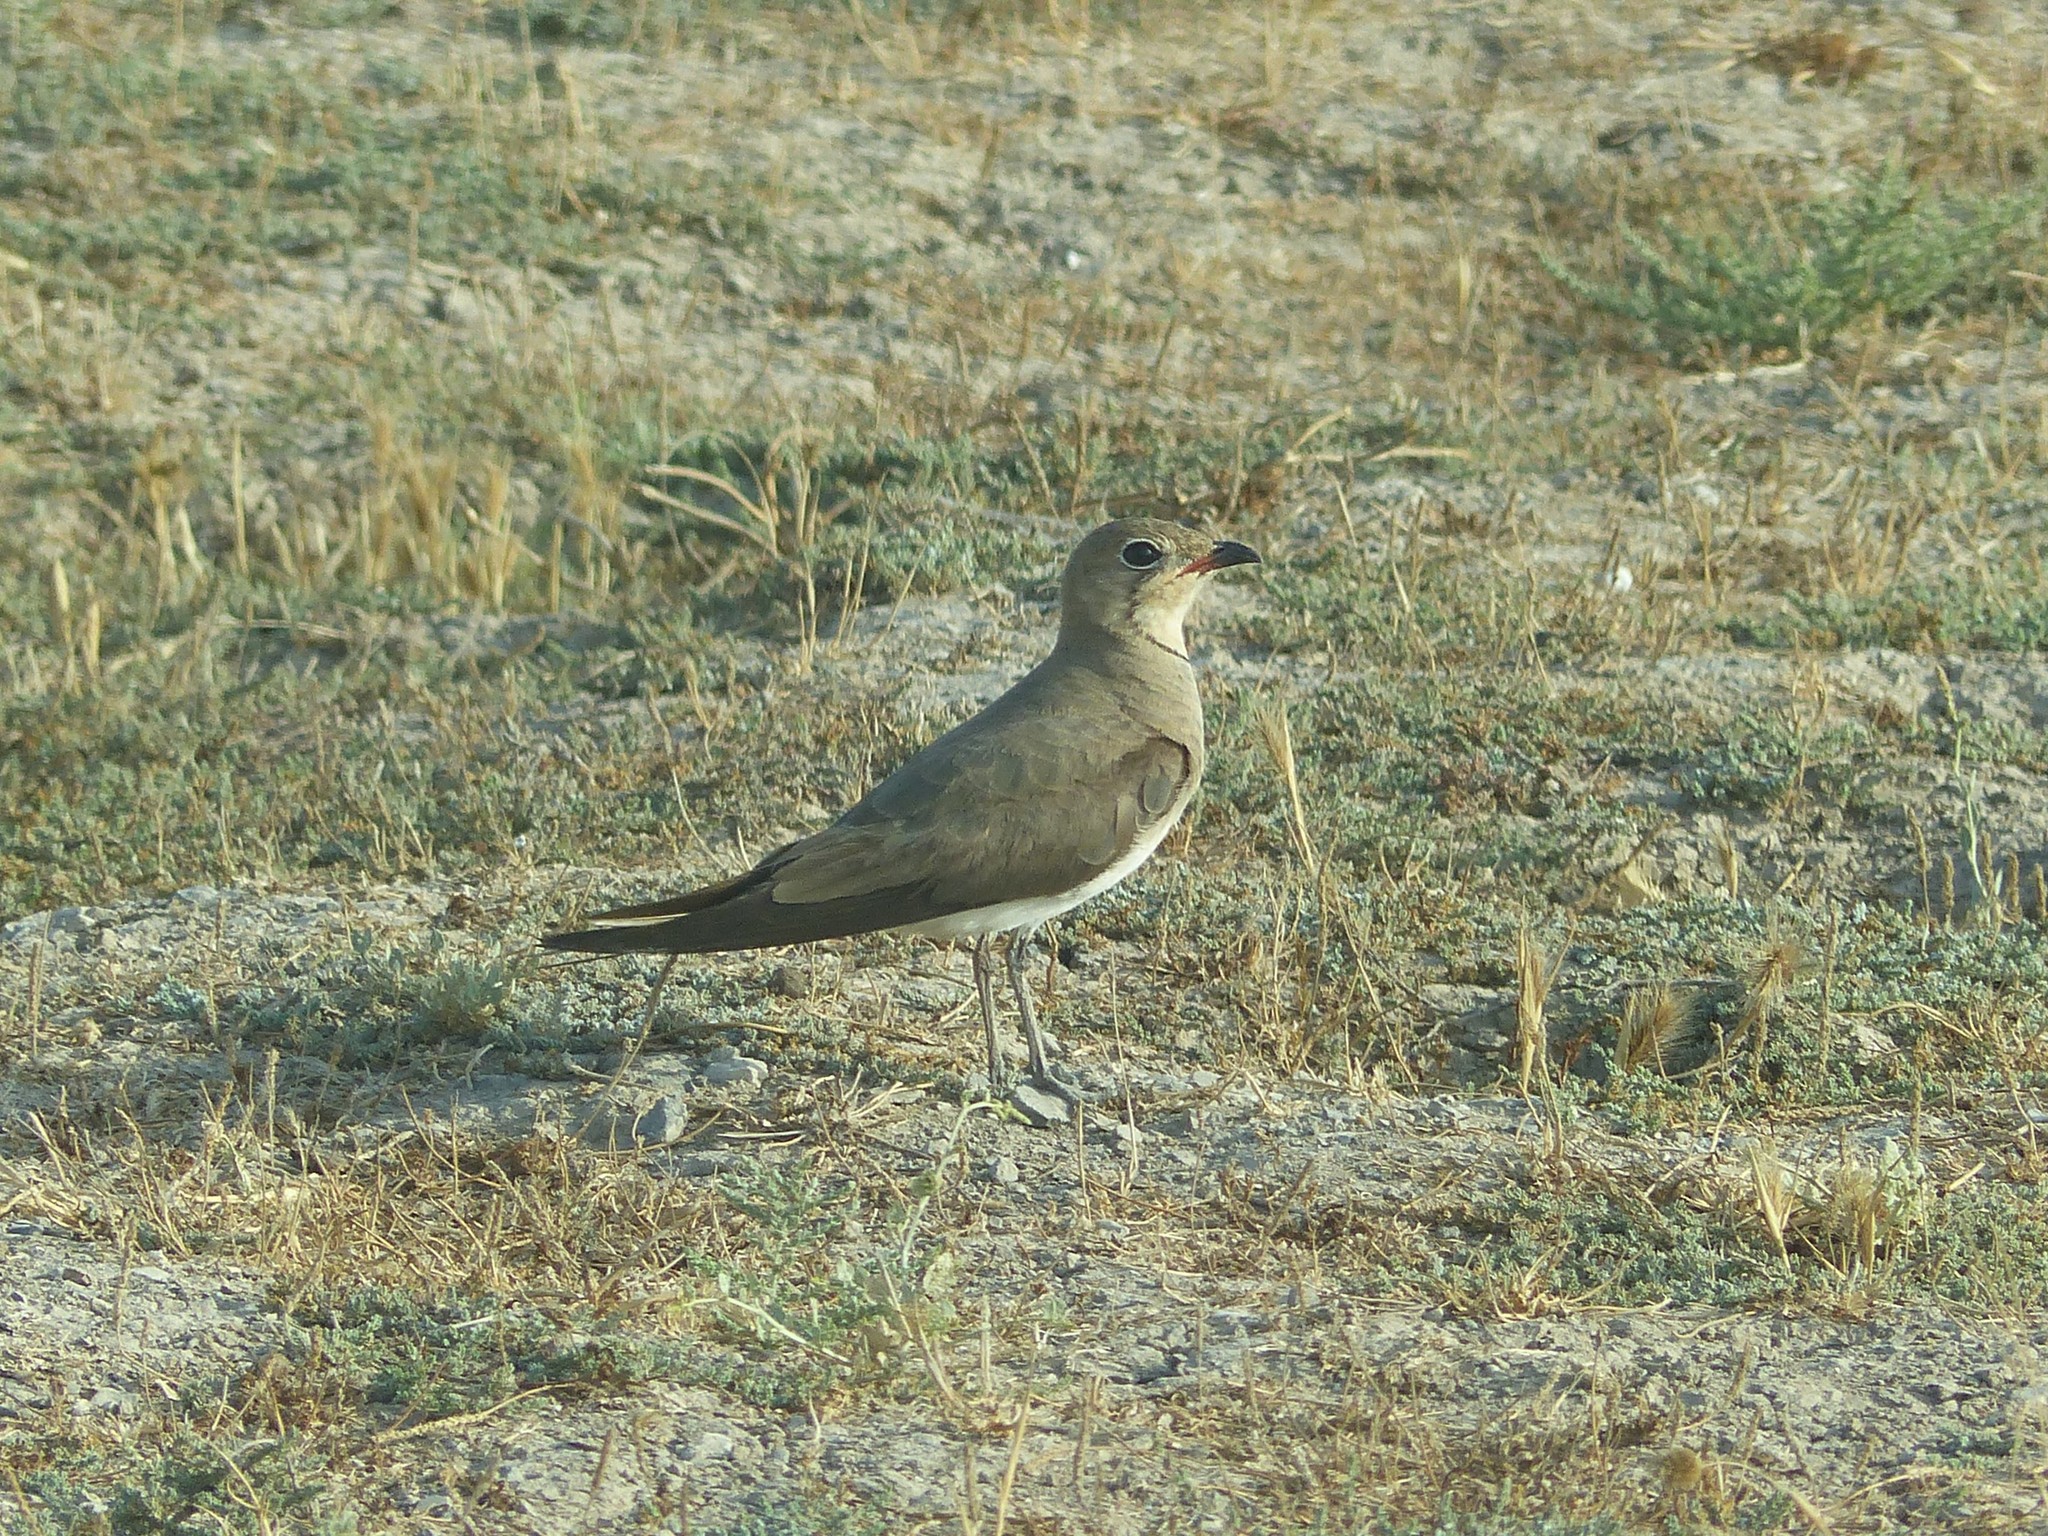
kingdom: Animalia
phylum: Chordata
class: Aves
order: Charadriiformes
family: Glareolidae
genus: Glareola
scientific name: Glareola pratincola
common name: Collared pratincole
